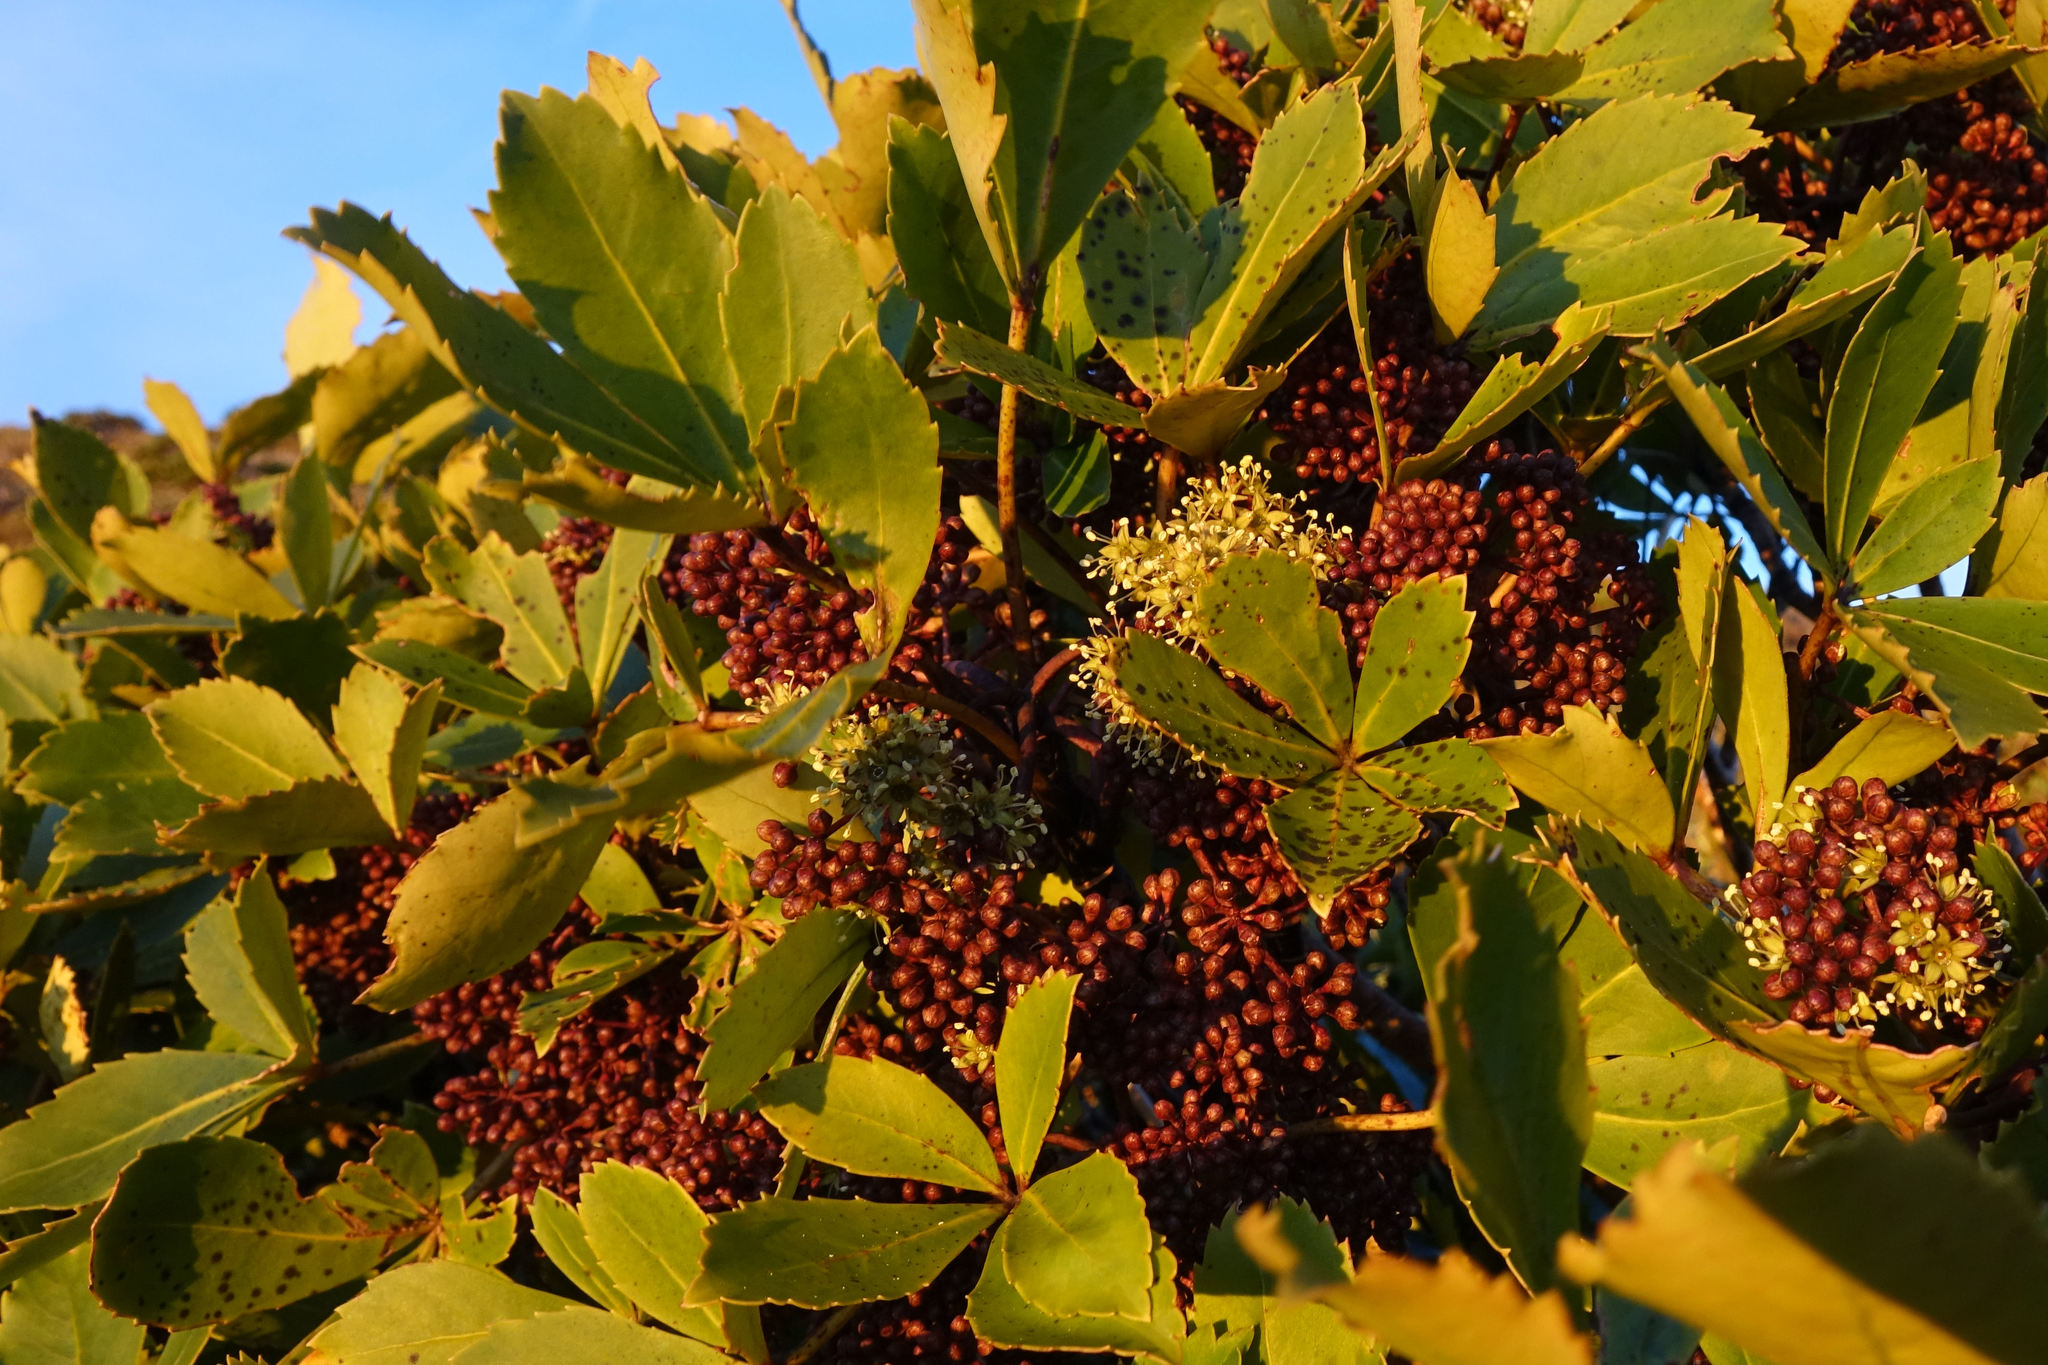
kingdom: Plantae
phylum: Tracheophyta
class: Magnoliopsida
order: Apiales
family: Araliaceae
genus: Neopanax
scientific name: Neopanax colensoi
